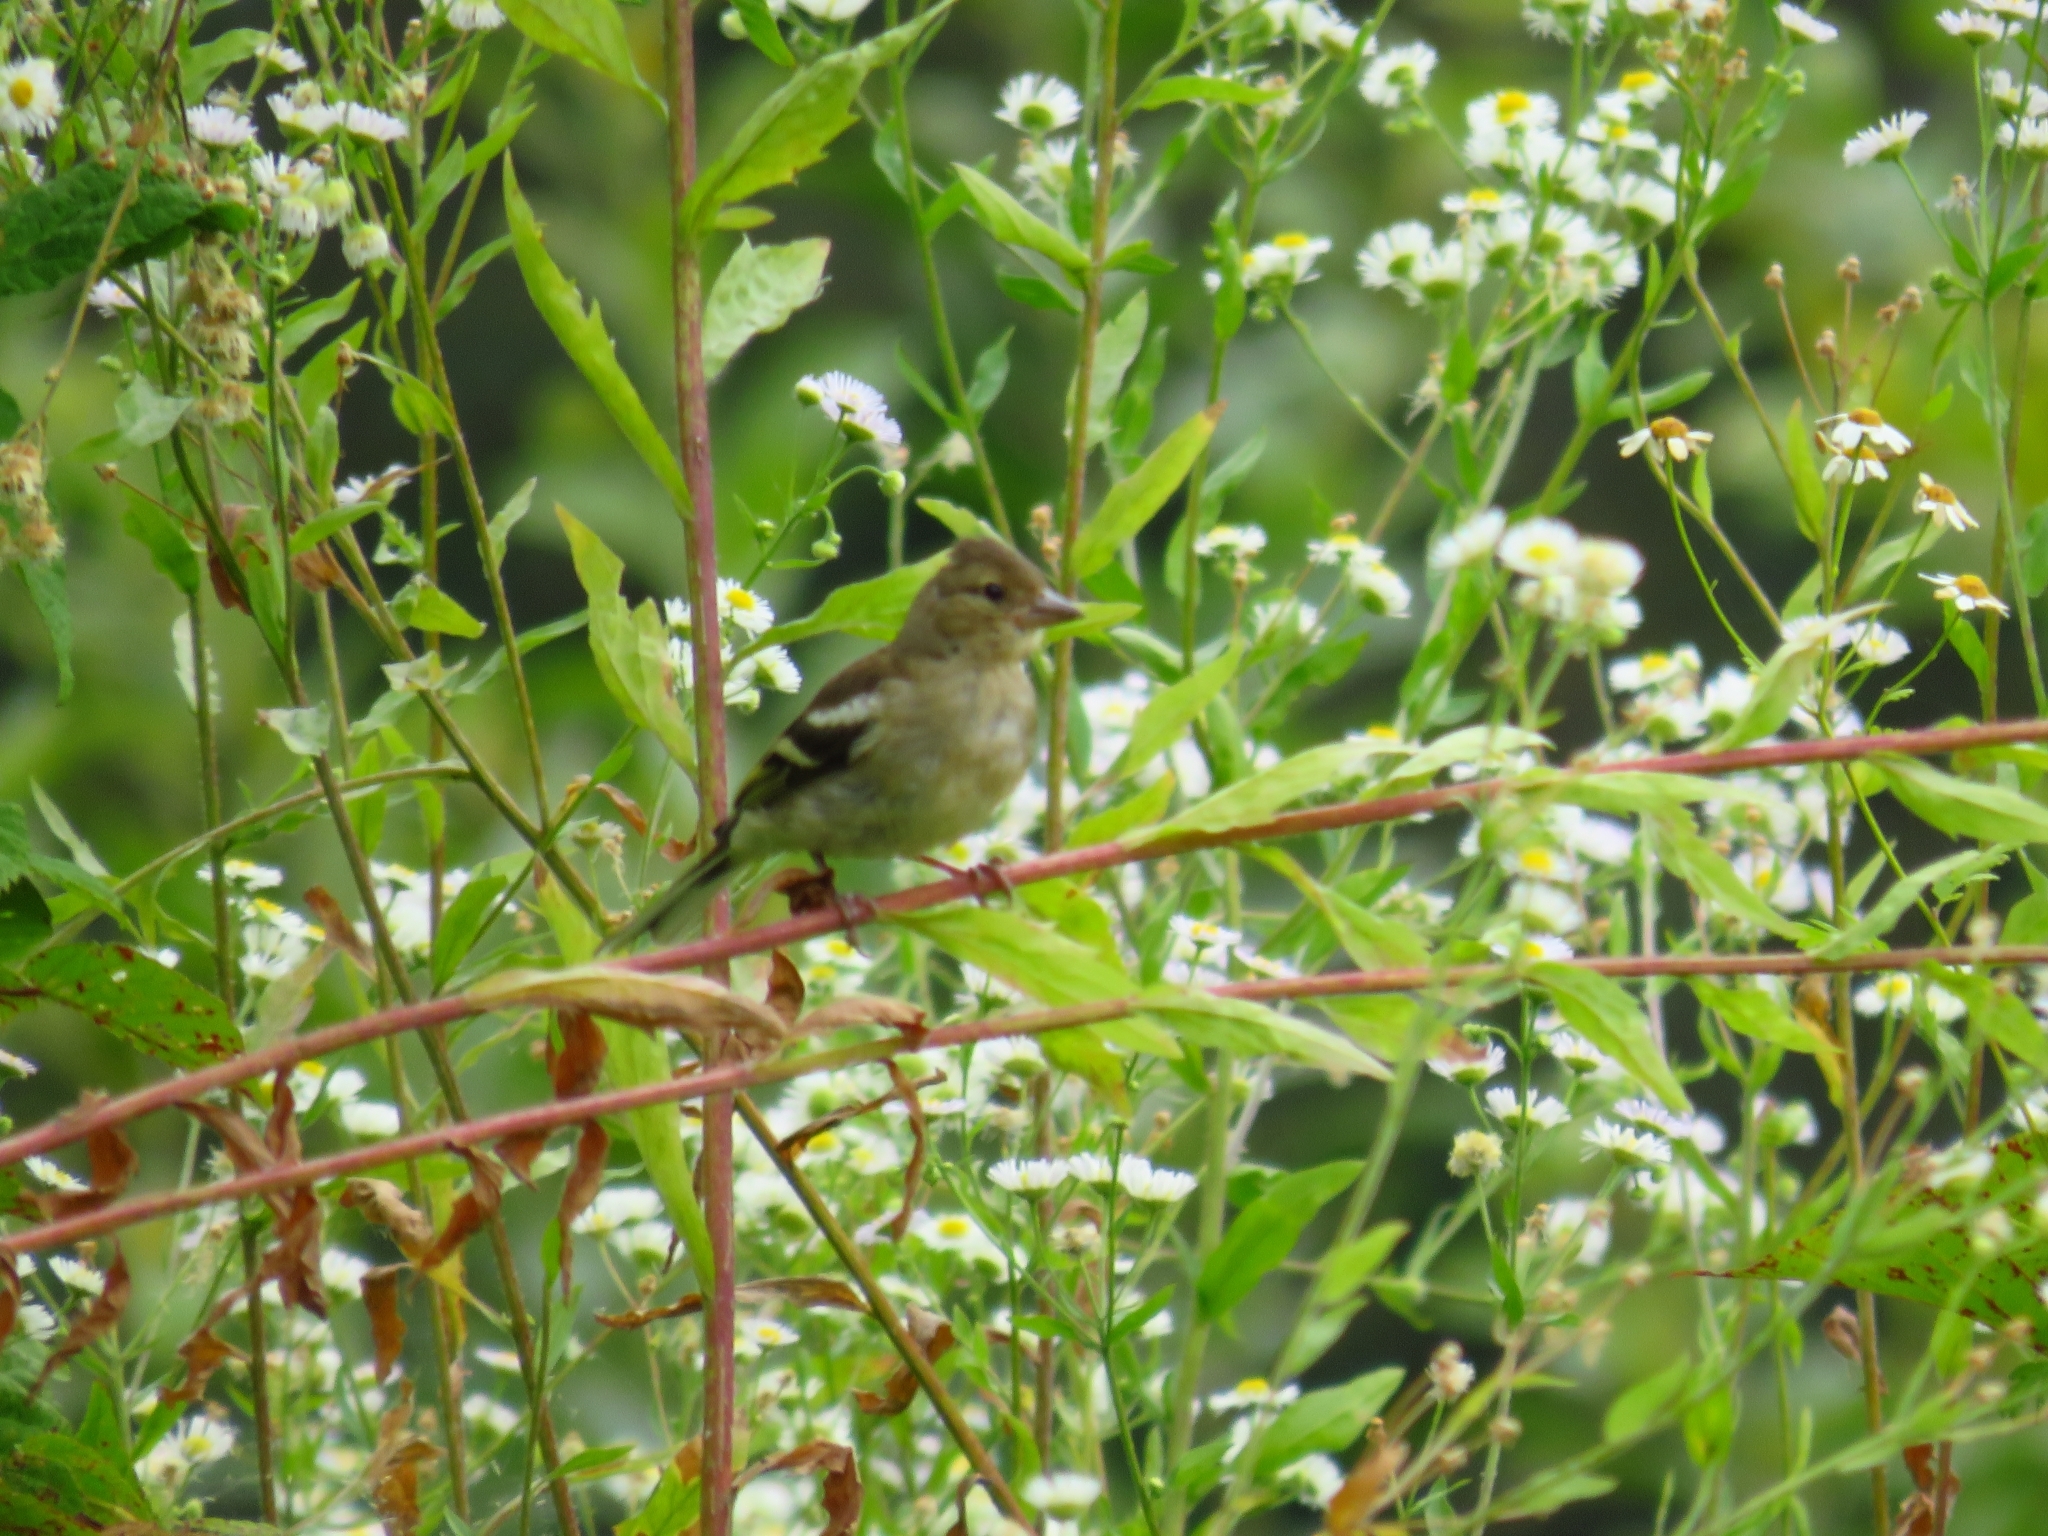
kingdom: Animalia
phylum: Chordata
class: Aves
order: Passeriformes
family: Fringillidae
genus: Fringilla
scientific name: Fringilla coelebs
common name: Common chaffinch
